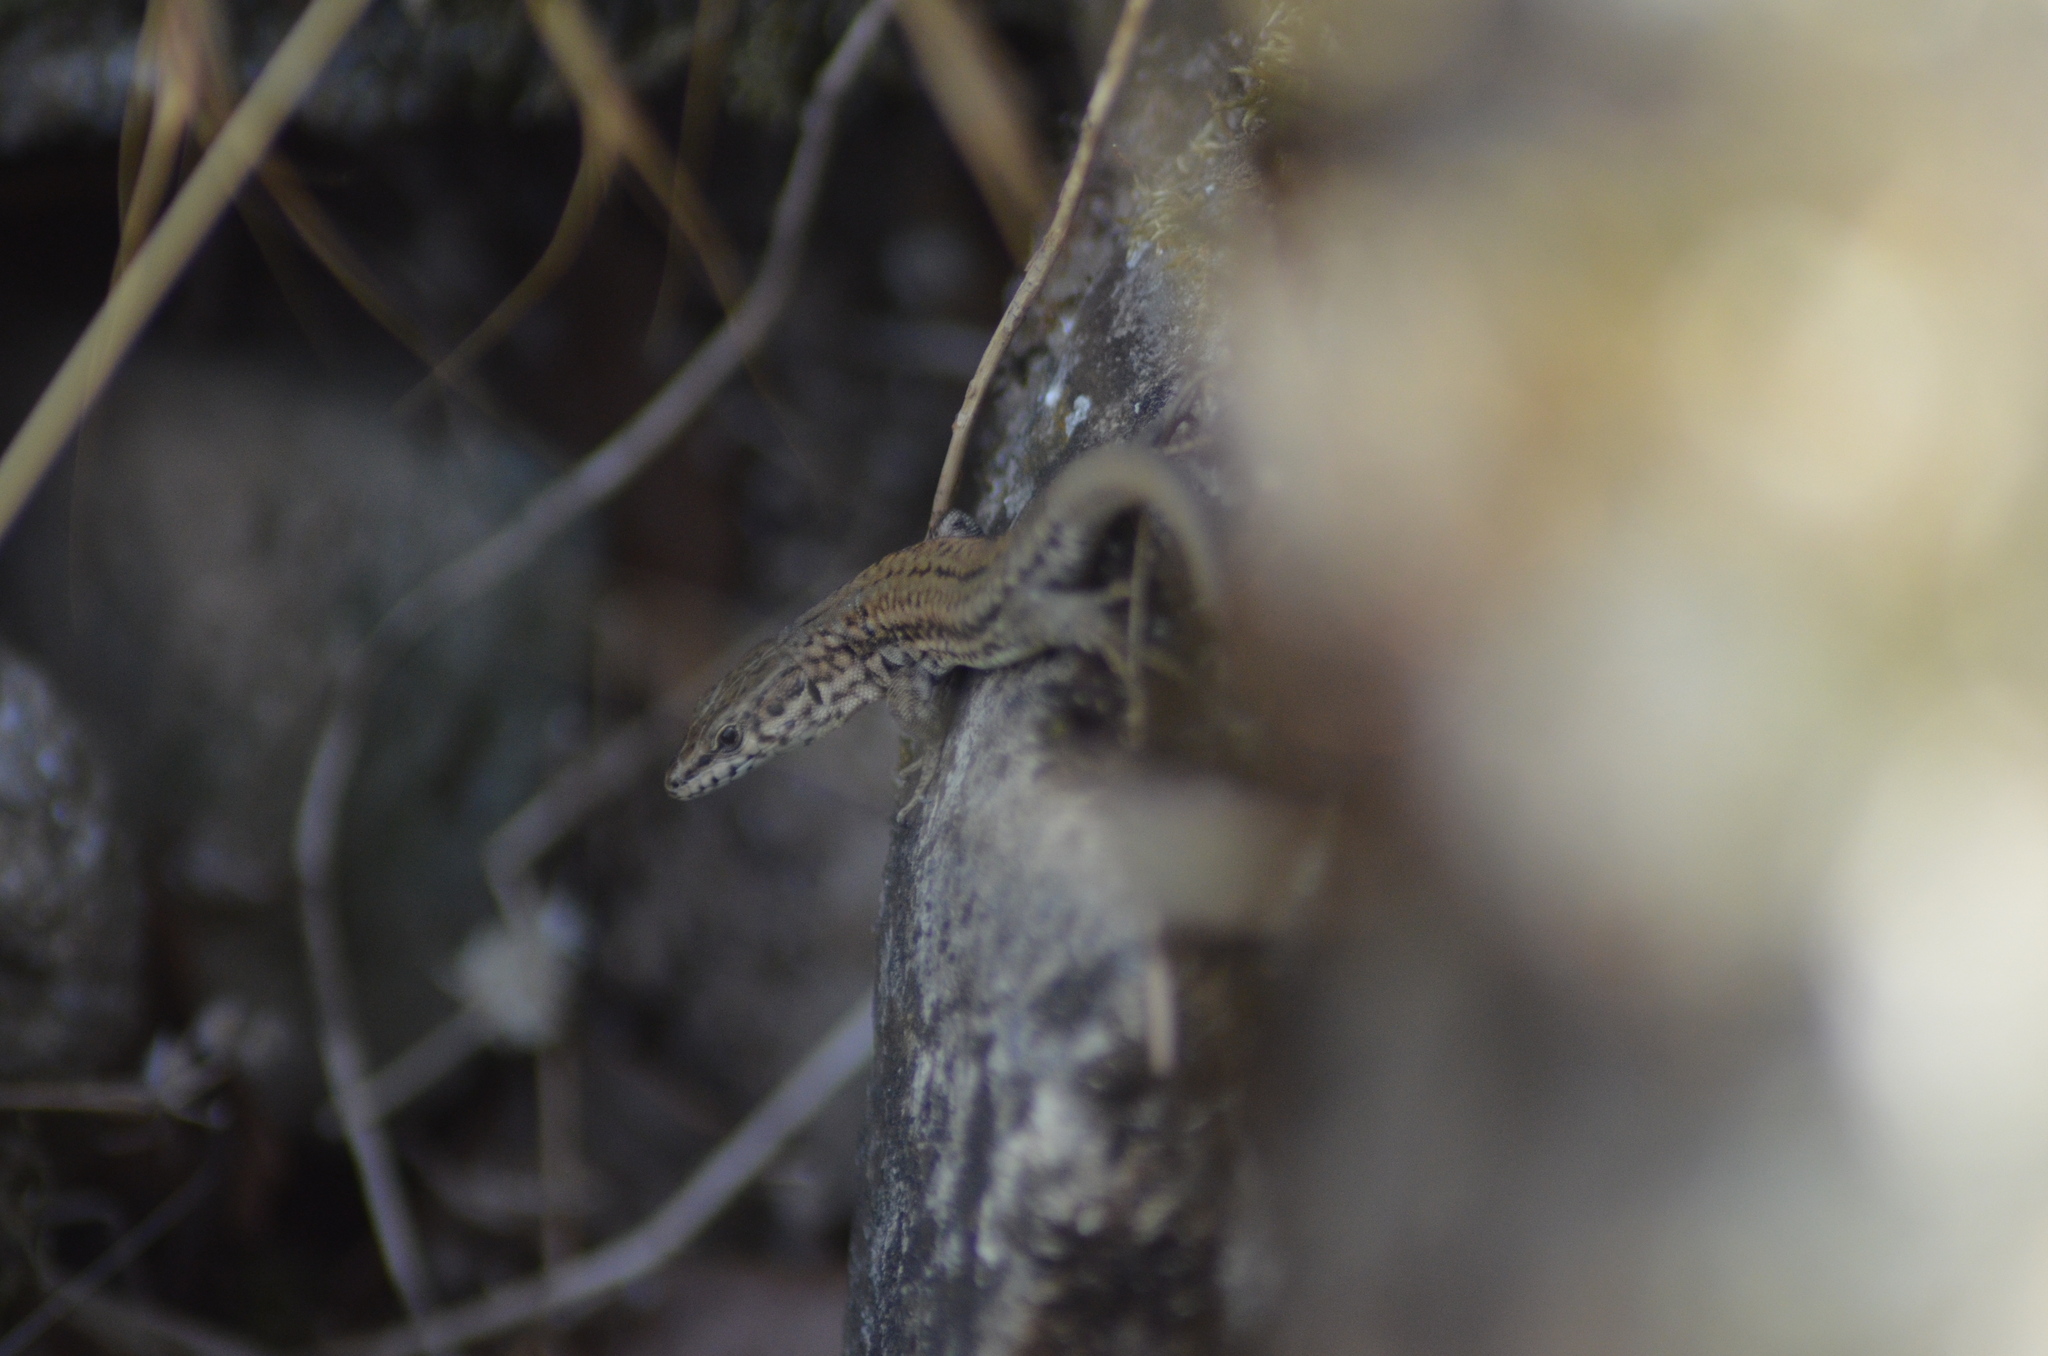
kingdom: Animalia
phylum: Chordata
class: Squamata
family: Lacertidae
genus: Podarcis
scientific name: Podarcis liolepis
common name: Catalonian wall lizard
